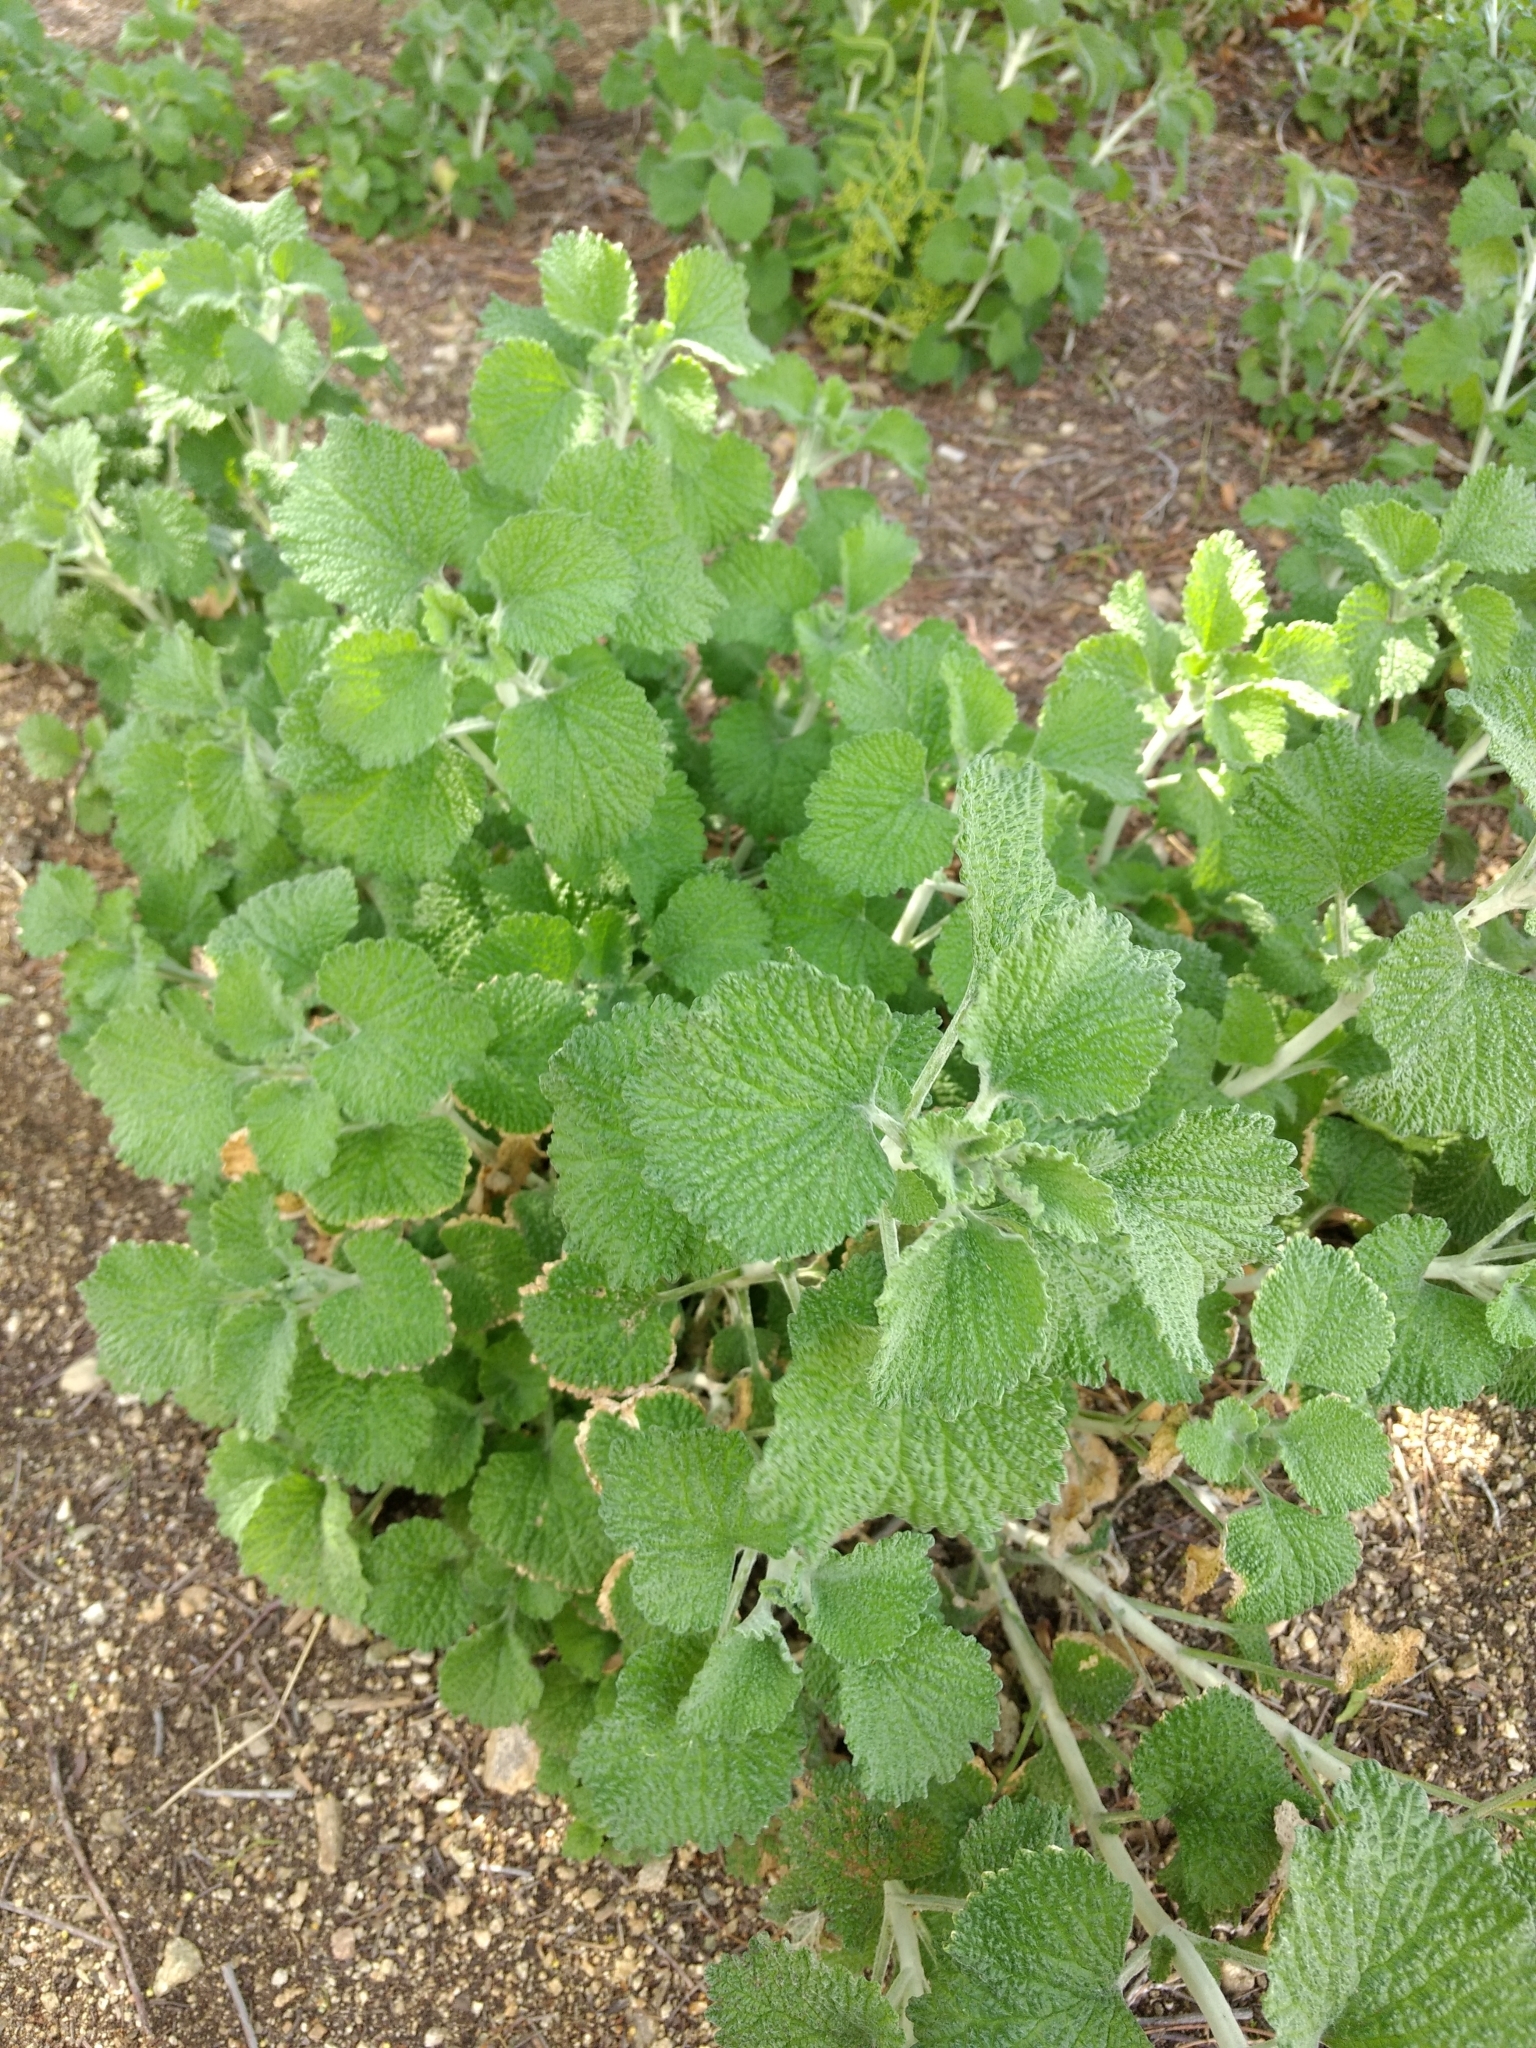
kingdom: Plantae
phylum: Tracheophyta
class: Magnoliopsida
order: Lamiales
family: Lamiaceae
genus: Marrubium
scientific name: Marrubium vulgare
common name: Horehound
